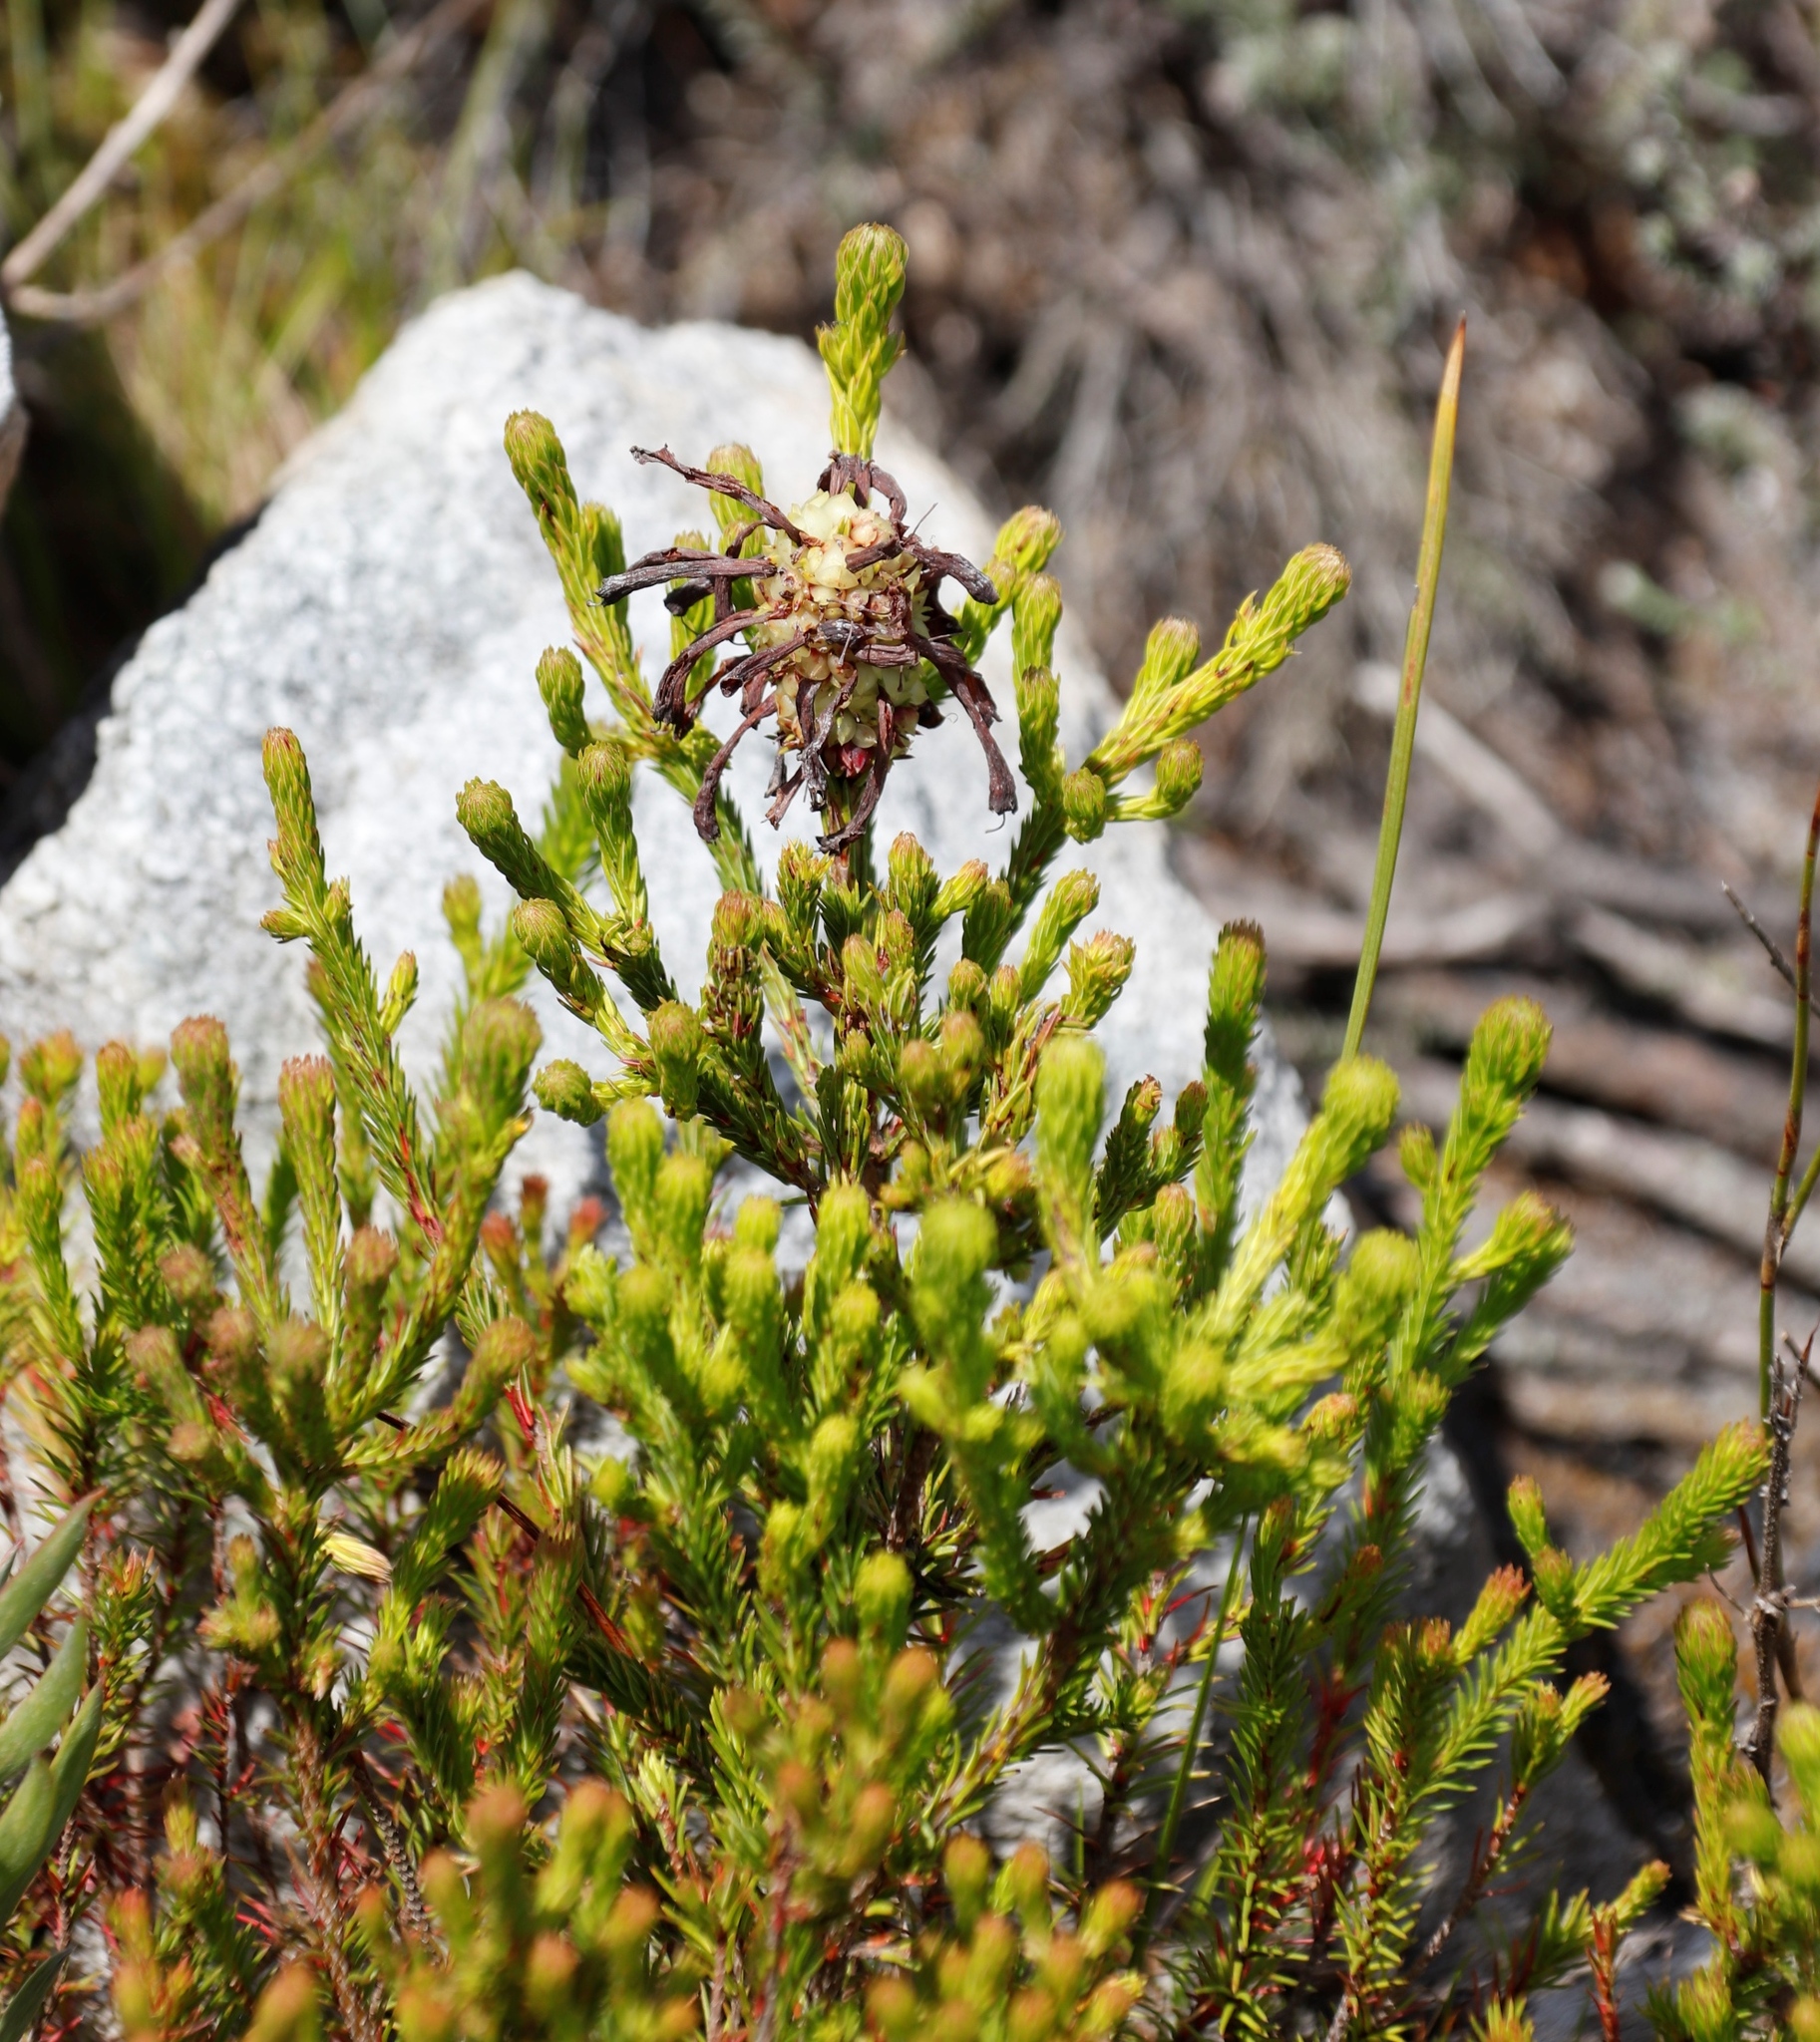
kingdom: Plantae
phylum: Tracheophyta
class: Magnoliopsida
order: Ericales
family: Ericaceae
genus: Erica
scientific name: Erica sessiliflora
